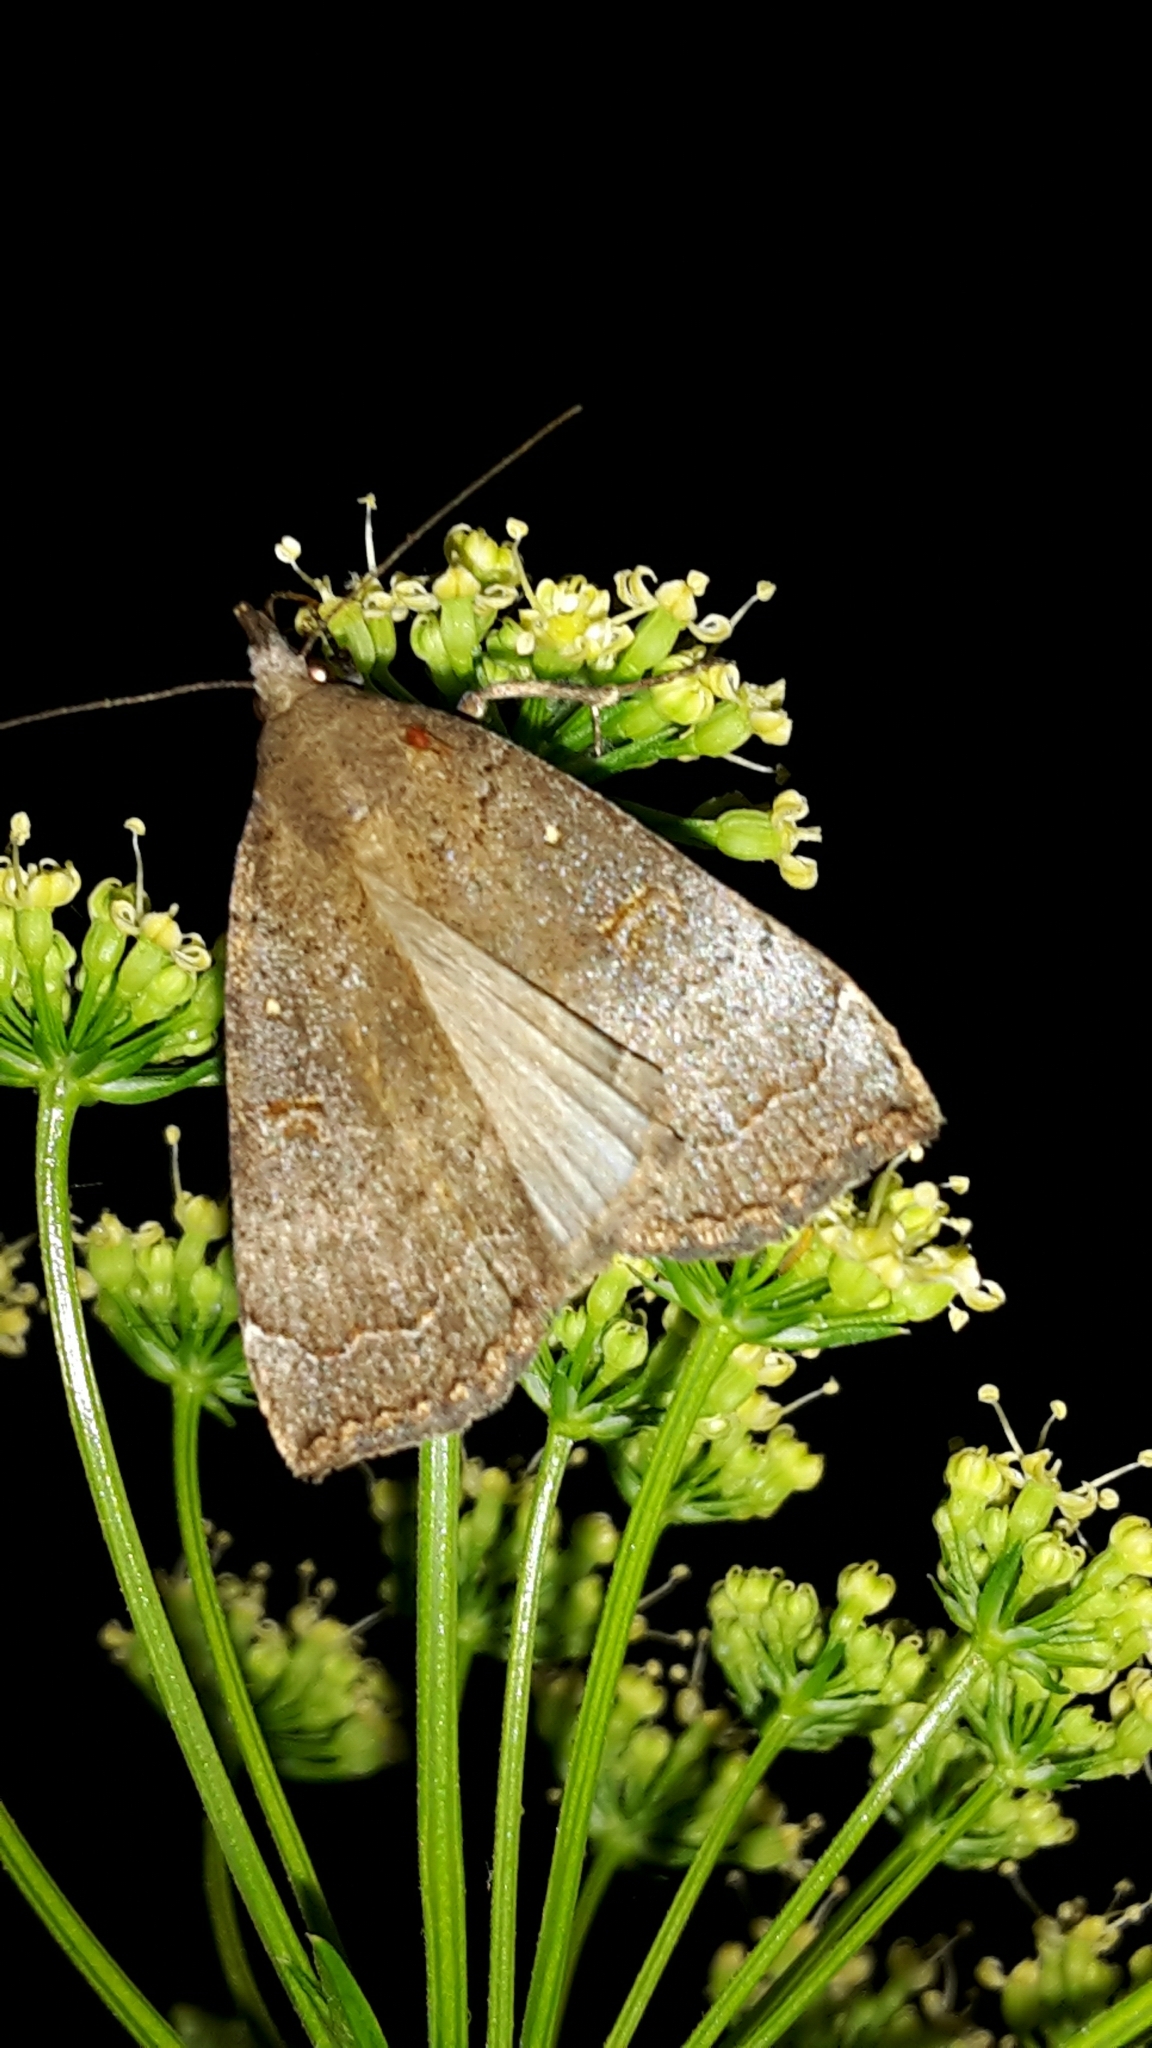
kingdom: Animalia
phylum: Arthropoda
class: Insecta
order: Lepidoptera
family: Erebidae
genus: Rhapsa
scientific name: Rhapsa scotosialis
